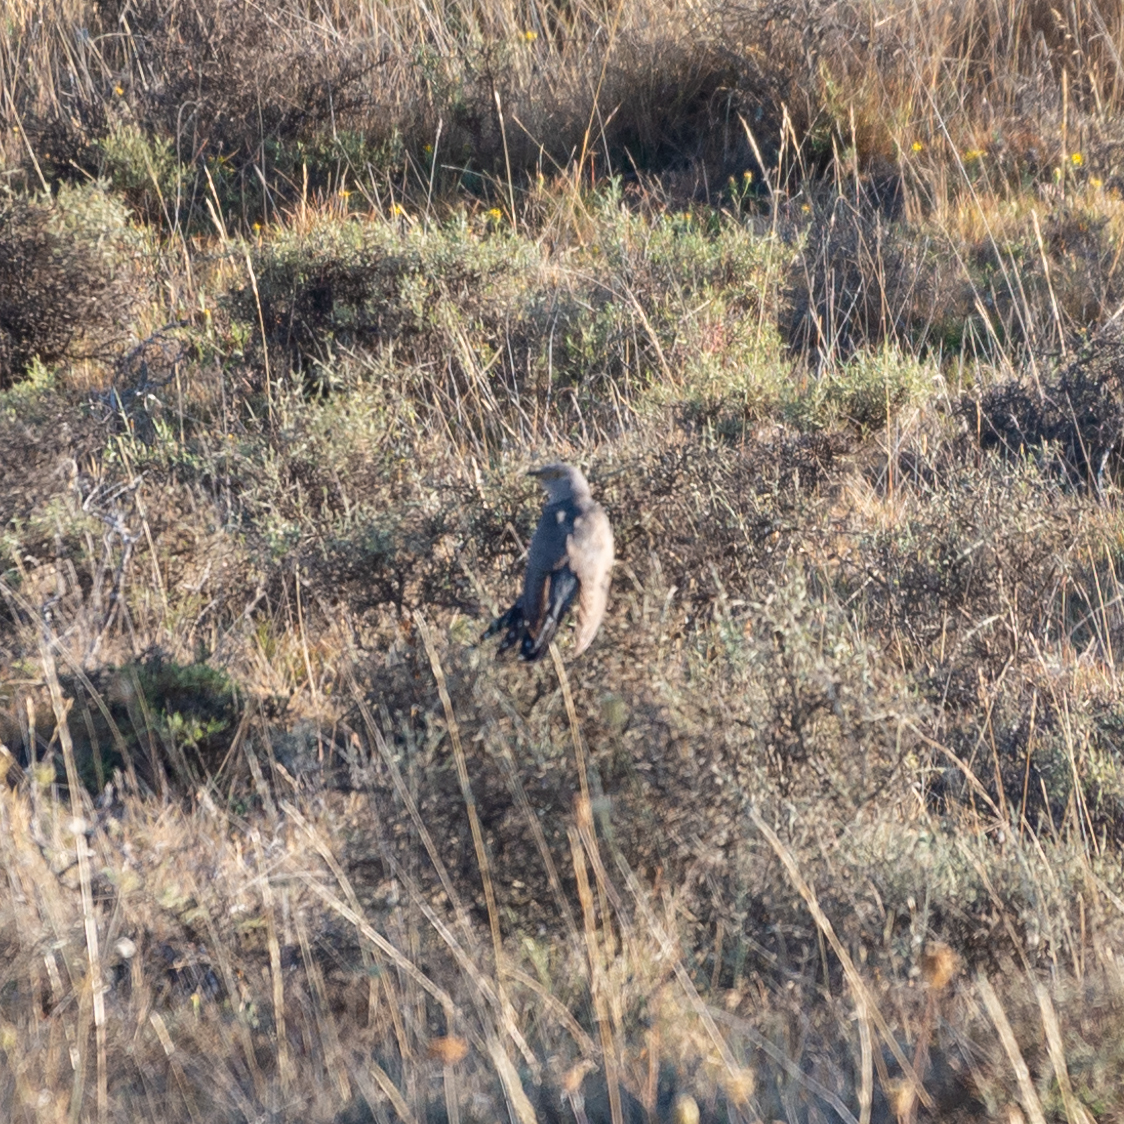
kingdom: Animalia
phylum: Chordata
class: Aves
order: Cuculiformes
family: Cuculidae
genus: Cuculus
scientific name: Cuculus canorus
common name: Common cuckoo
